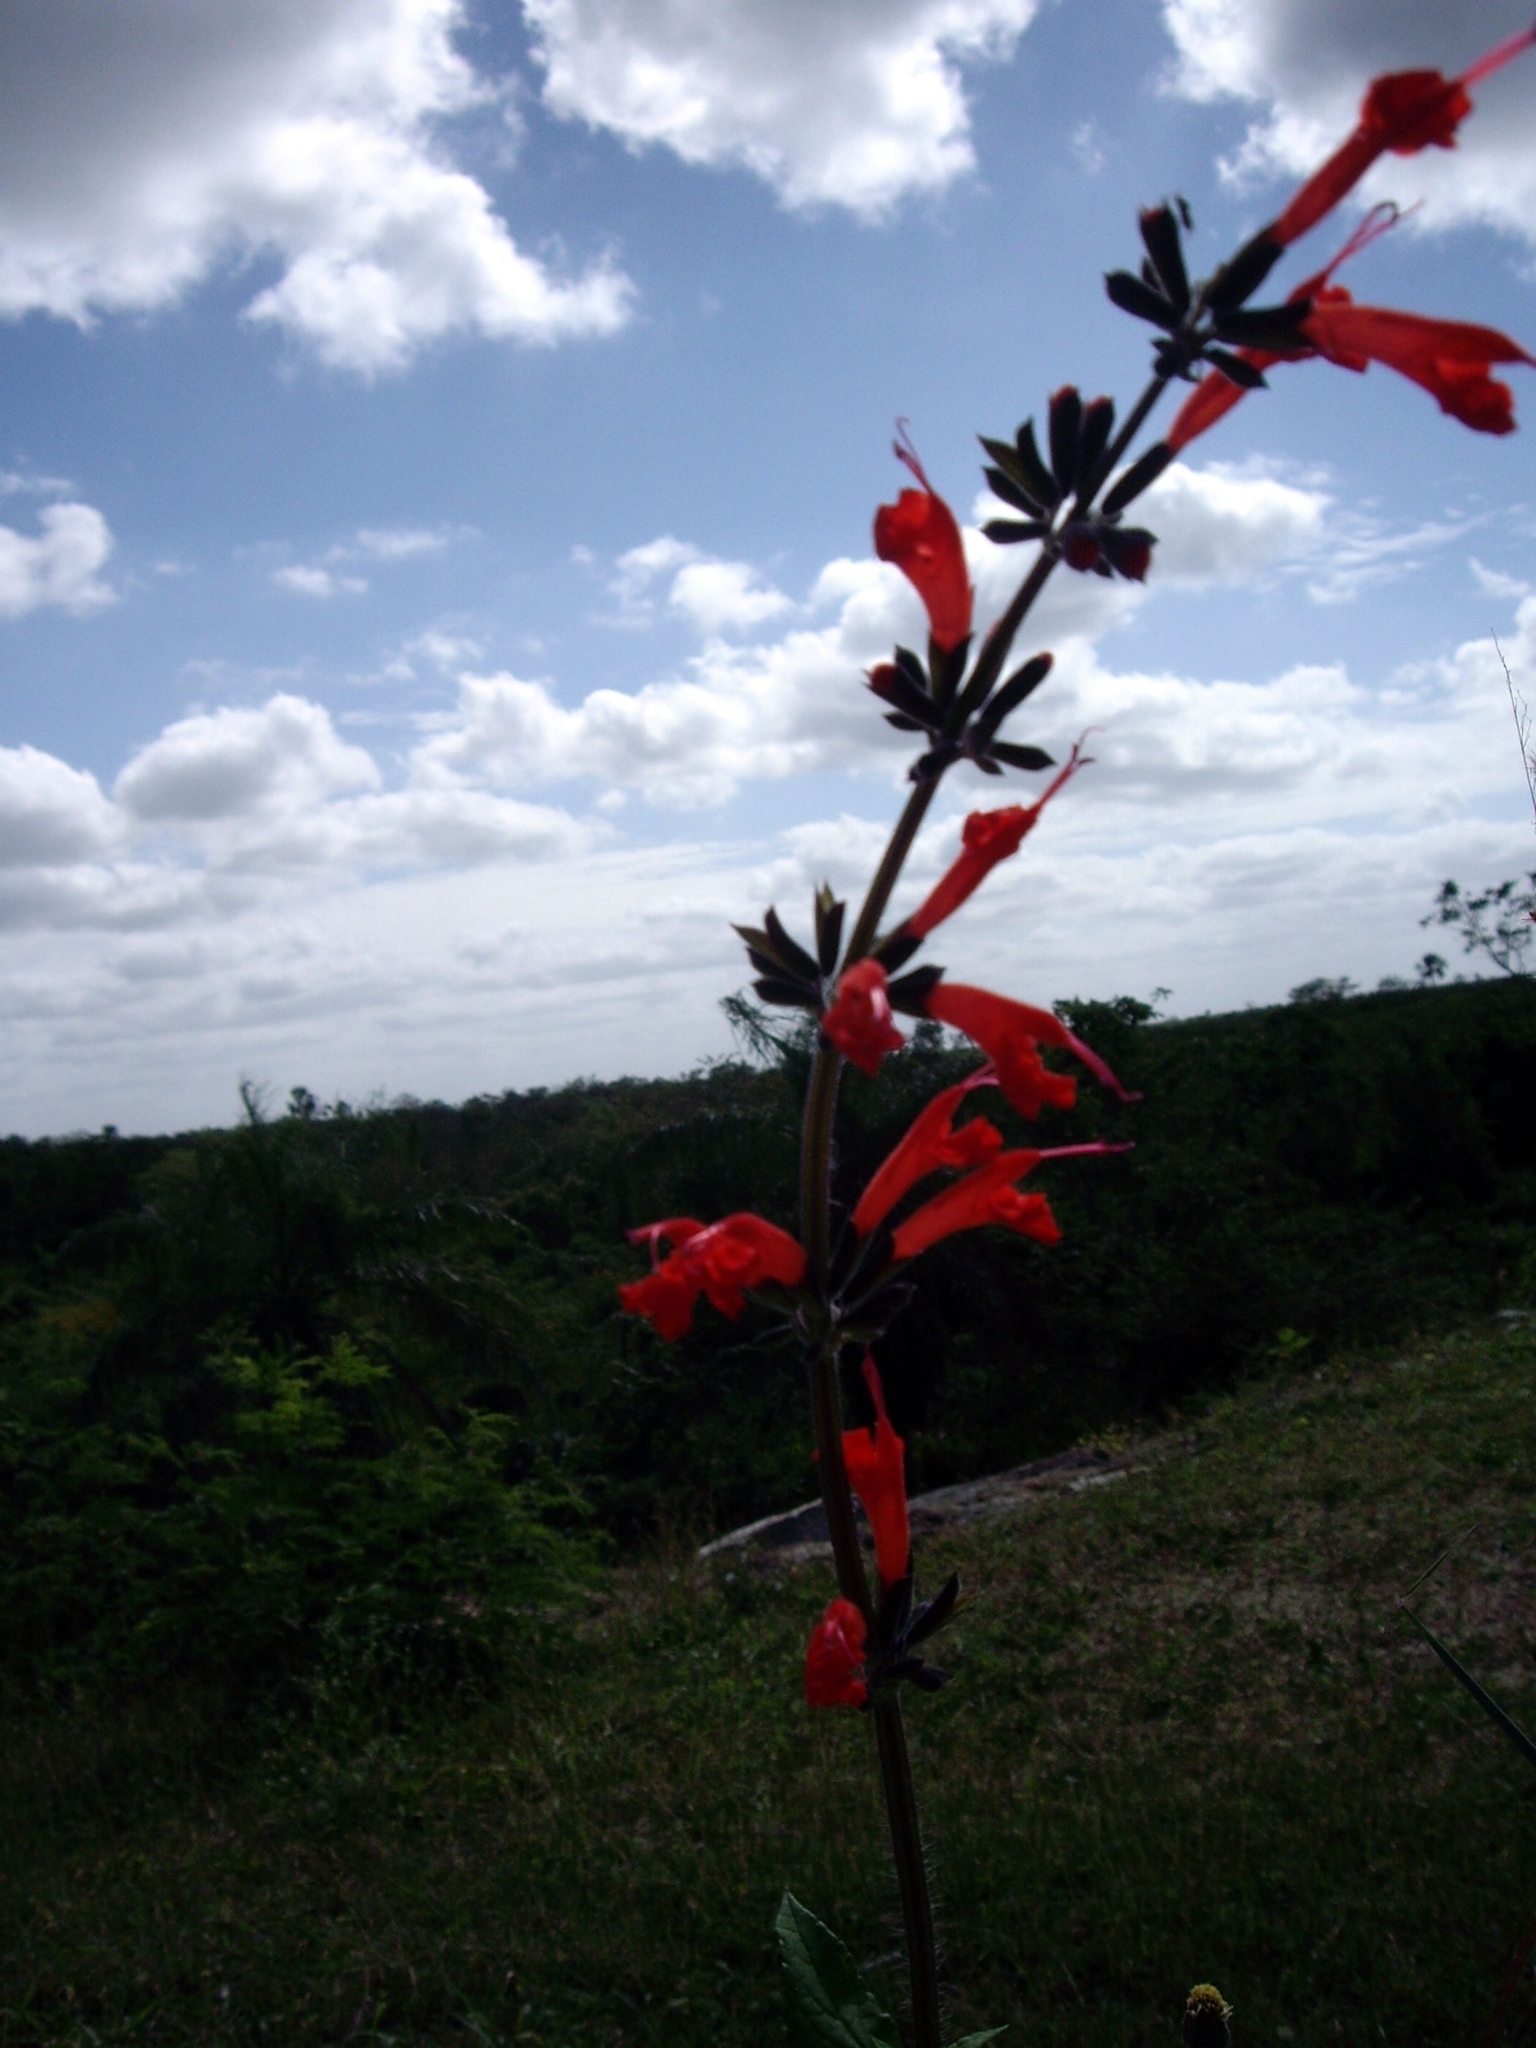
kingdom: Plantae
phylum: Tracheophyta
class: Magnoliopsida
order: Lamiales
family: Lamiaceae
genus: Salvia
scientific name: Salvia coccinea
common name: Blood sage
